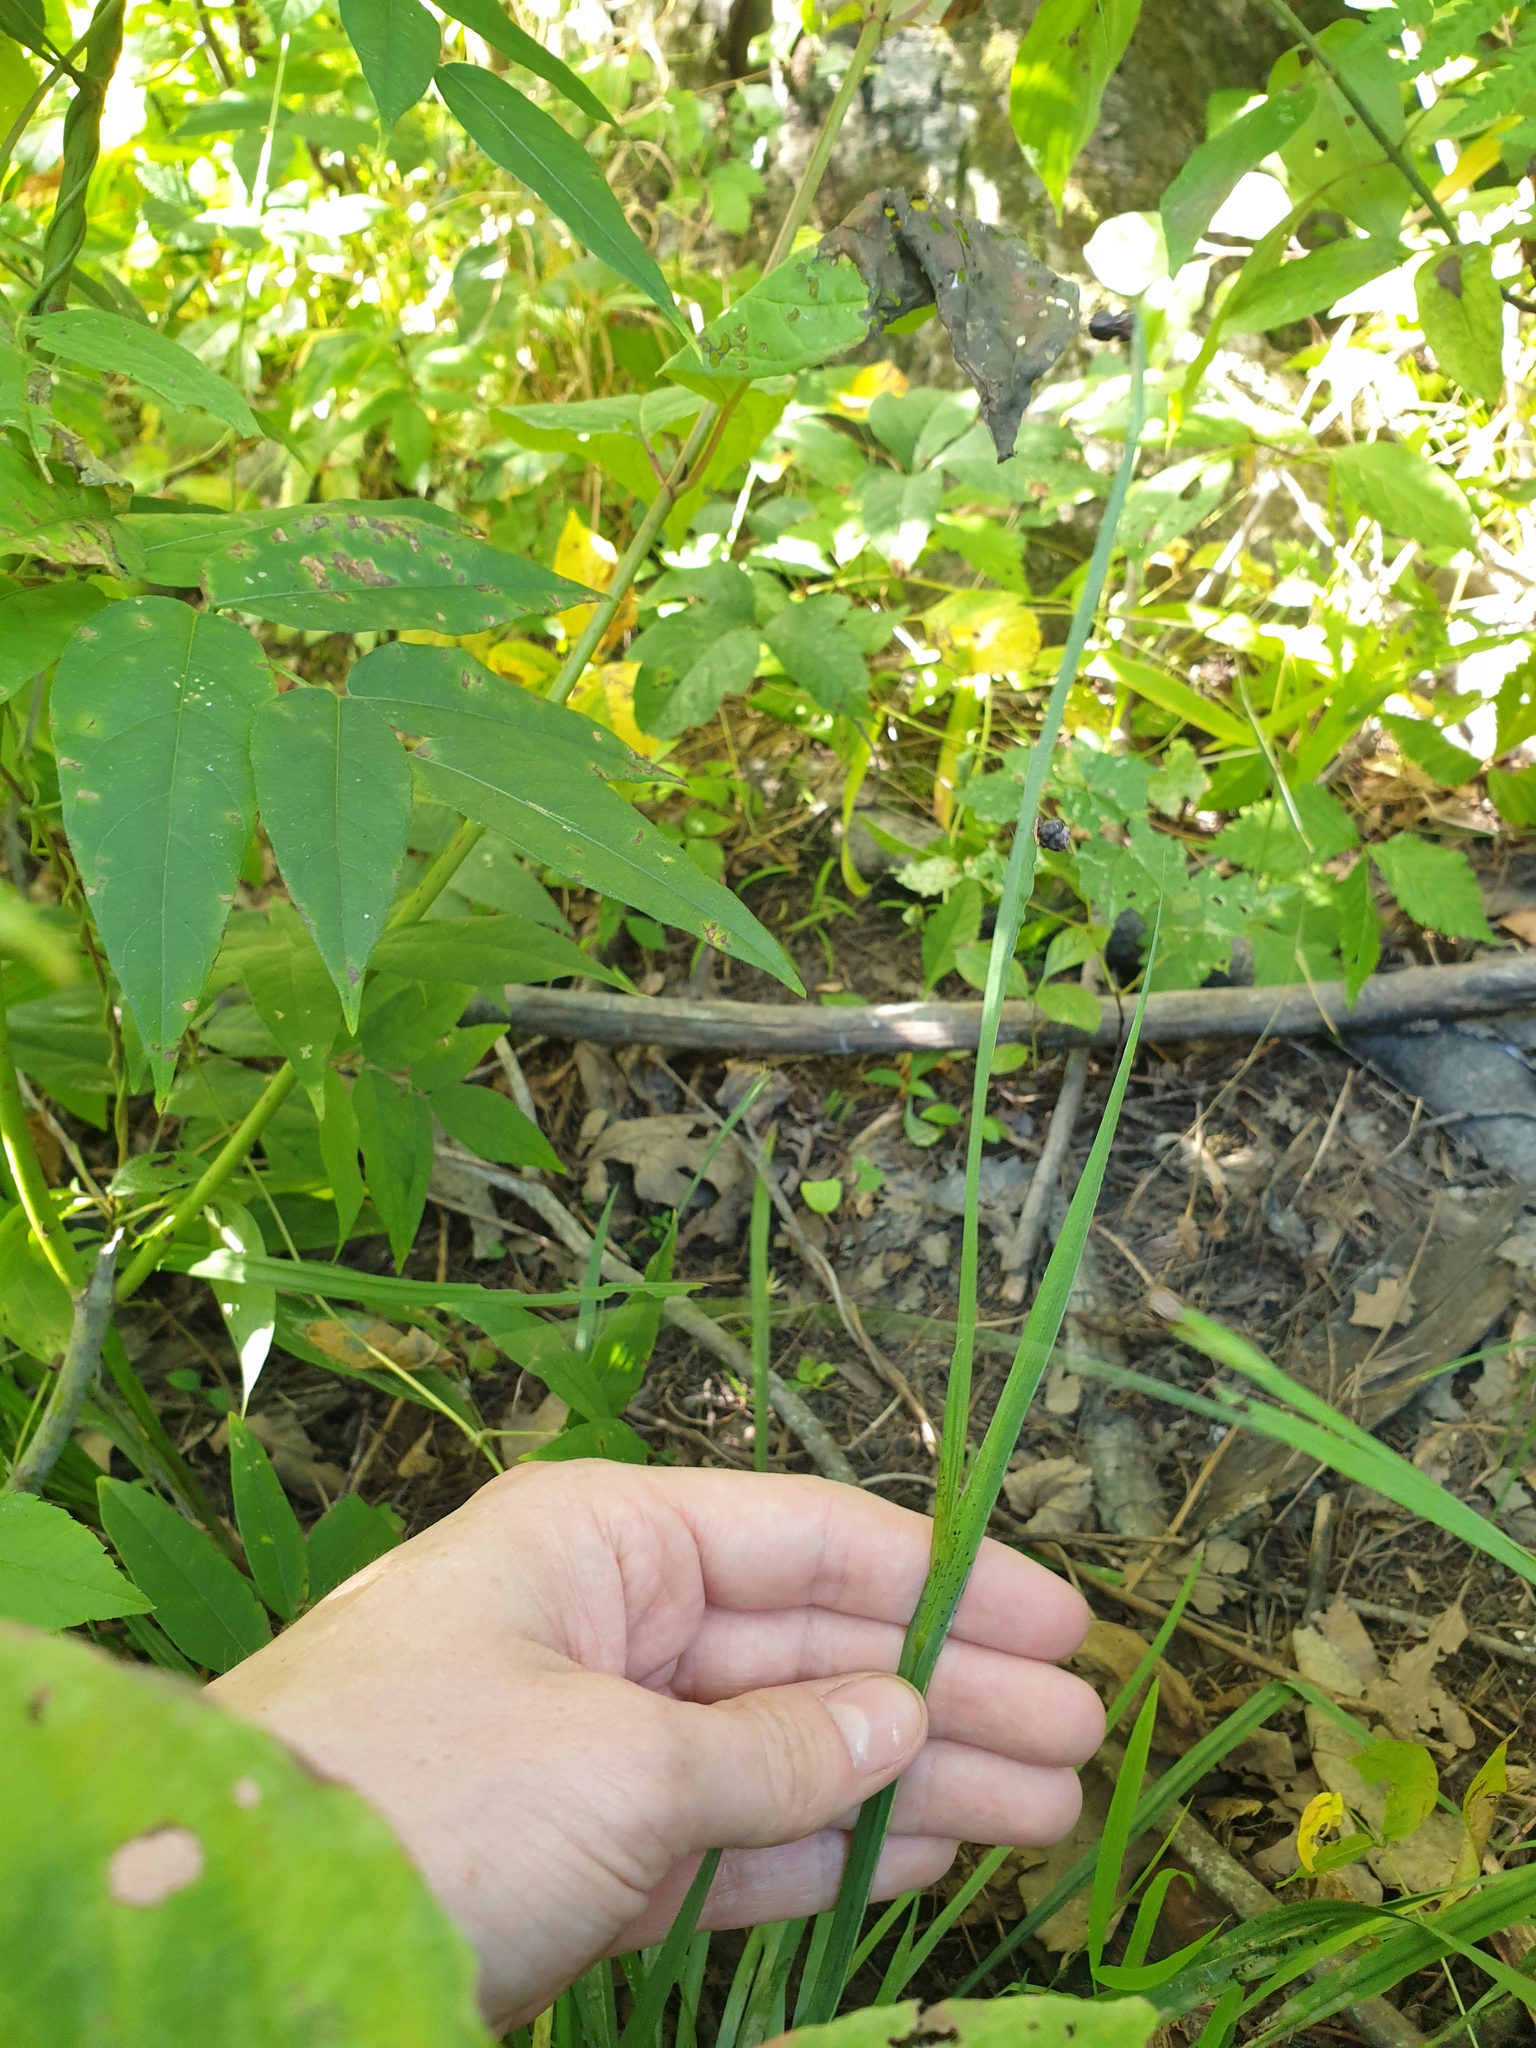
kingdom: Plantae
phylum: Tracheophyta
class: Liliopsida
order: Asparagales
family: Iridaceae
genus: Sisyrinchium
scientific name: Sisyrinchium angustifolium
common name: Narrow-leaf blue-eyed-grass
